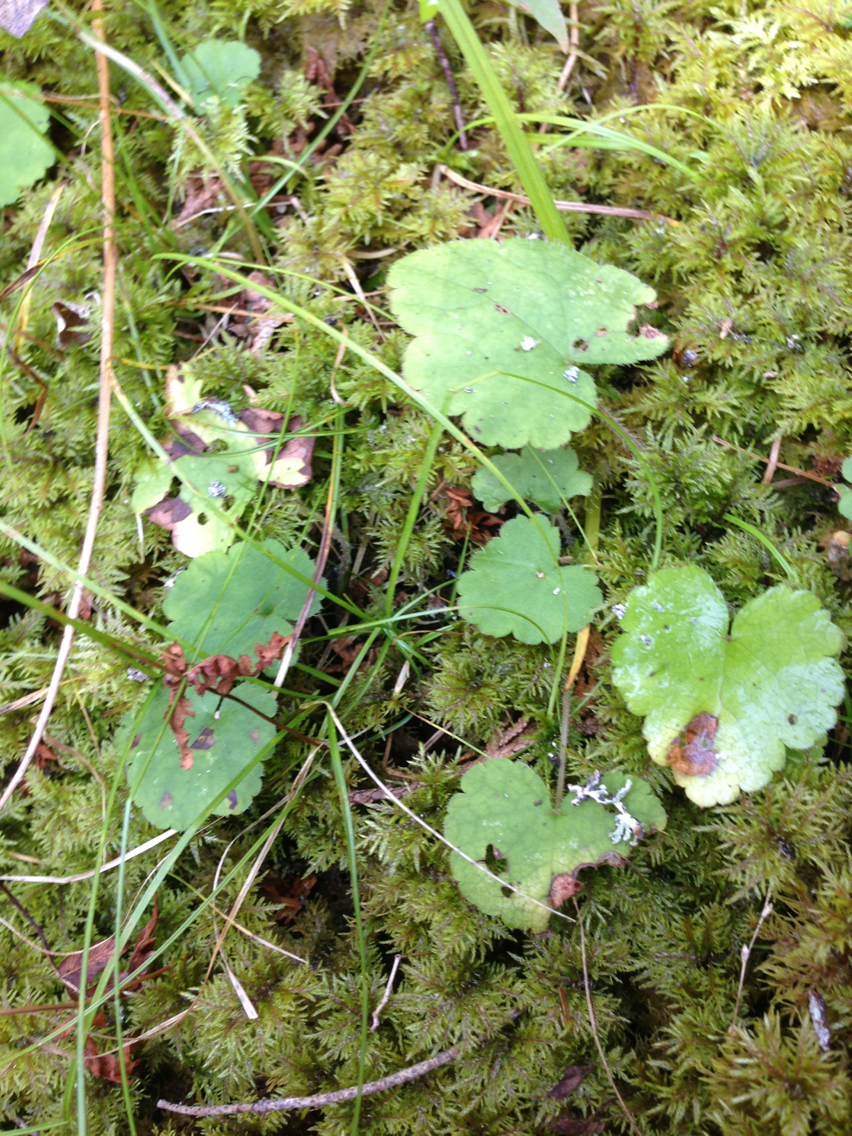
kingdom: Plantae
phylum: Tracheophyta
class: Magnoliopsida
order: Saxifragales
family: Saxifragaceae
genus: Tiarella
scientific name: Tiarella stolonifera
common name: Stoloniferous foamflower
